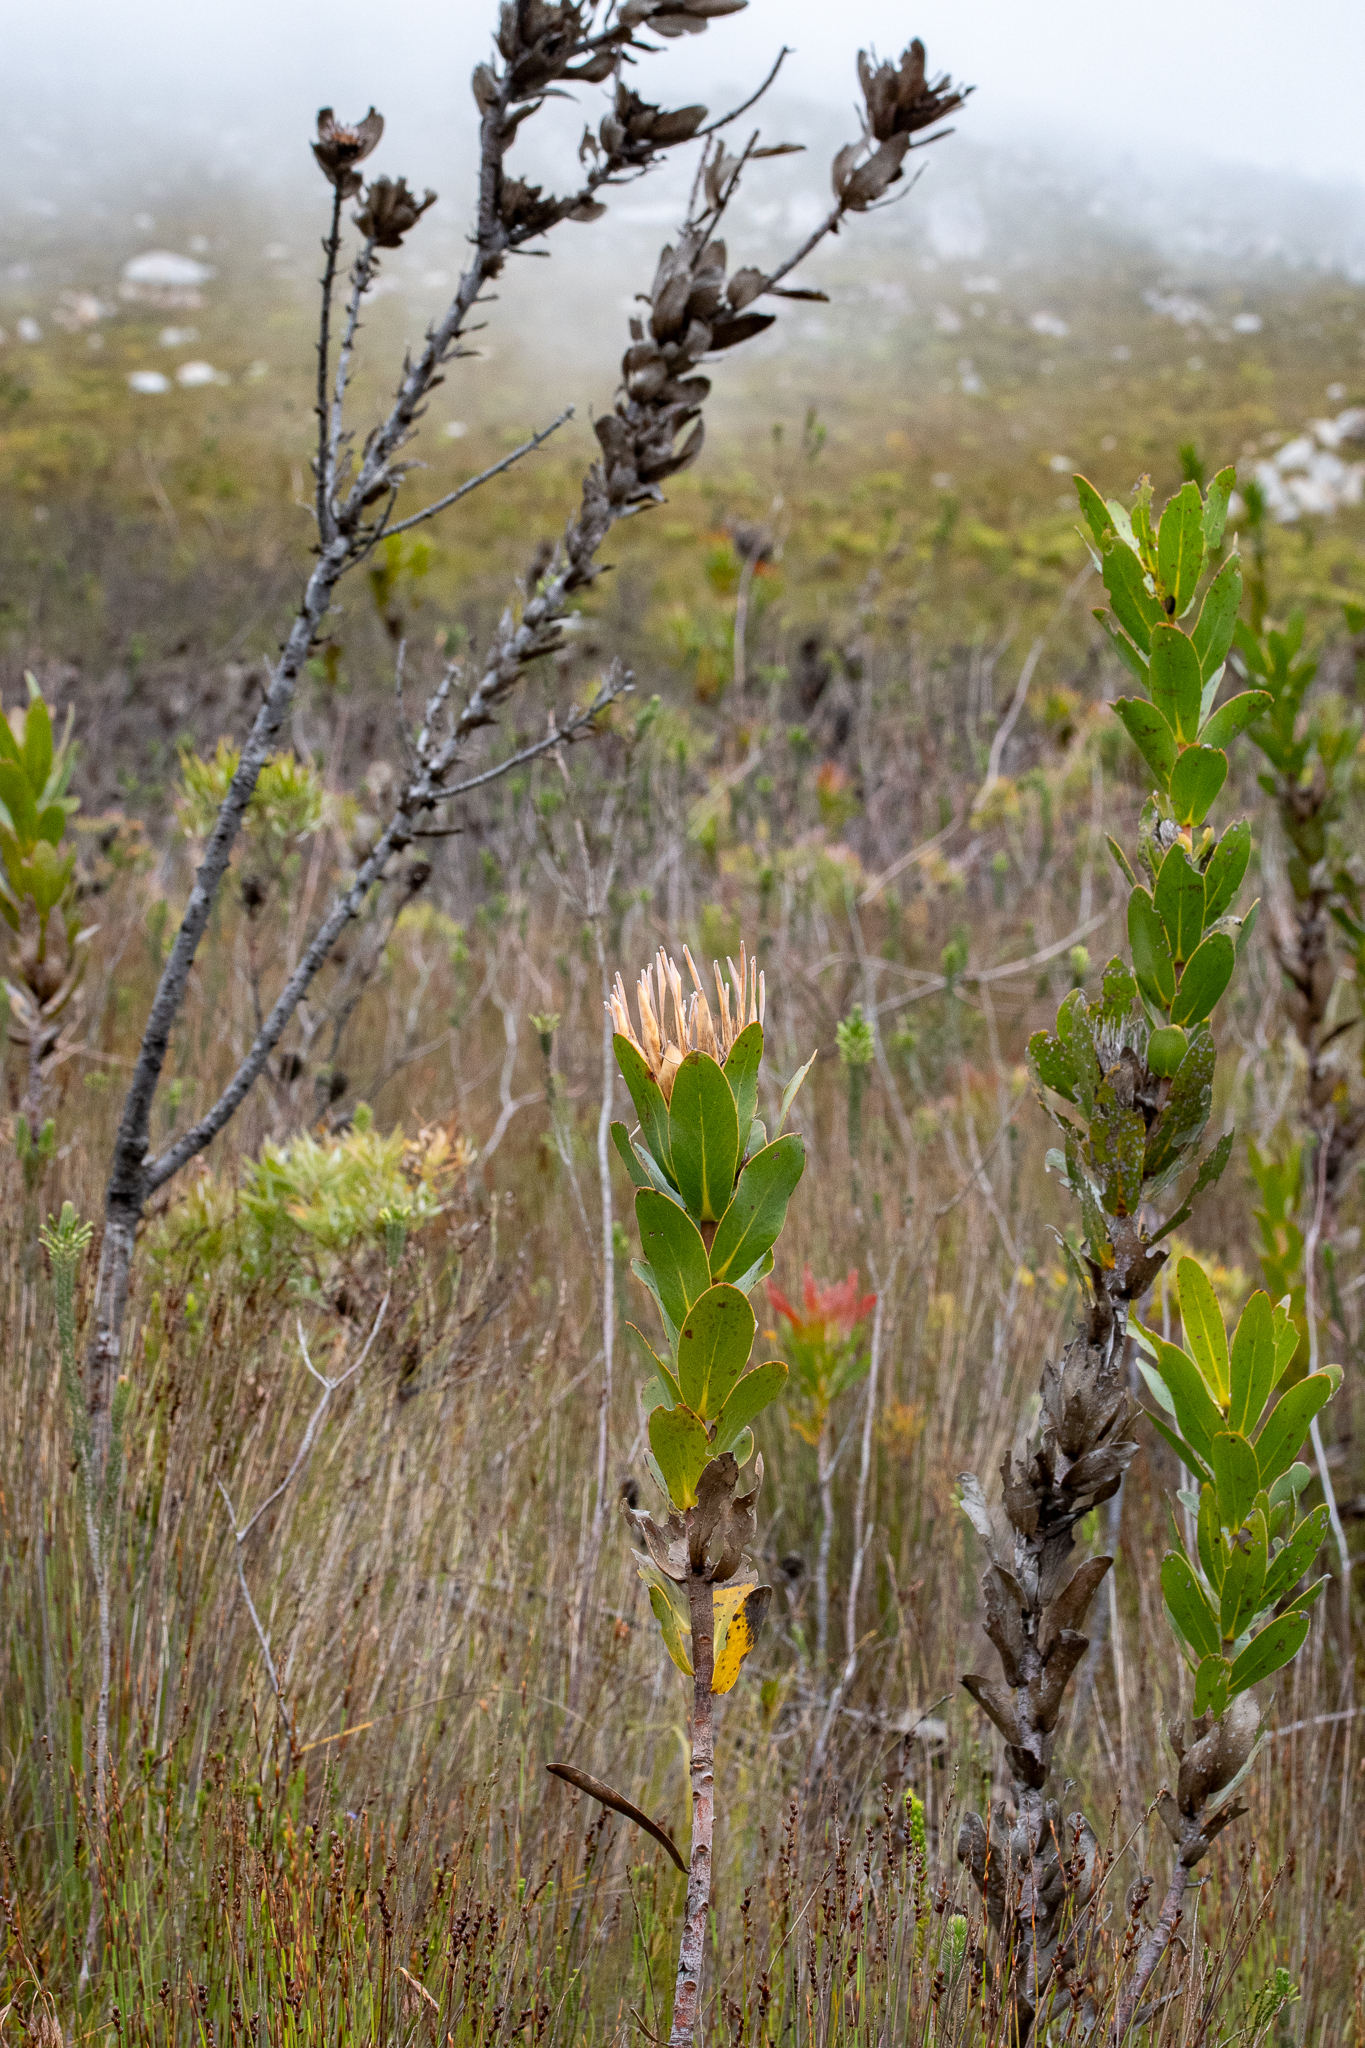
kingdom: Plantae
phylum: Tracheophyta
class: Magnoliopsida
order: Proteales
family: Proteaceae
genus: Protea
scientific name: Protea compacta
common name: Bot river protea
